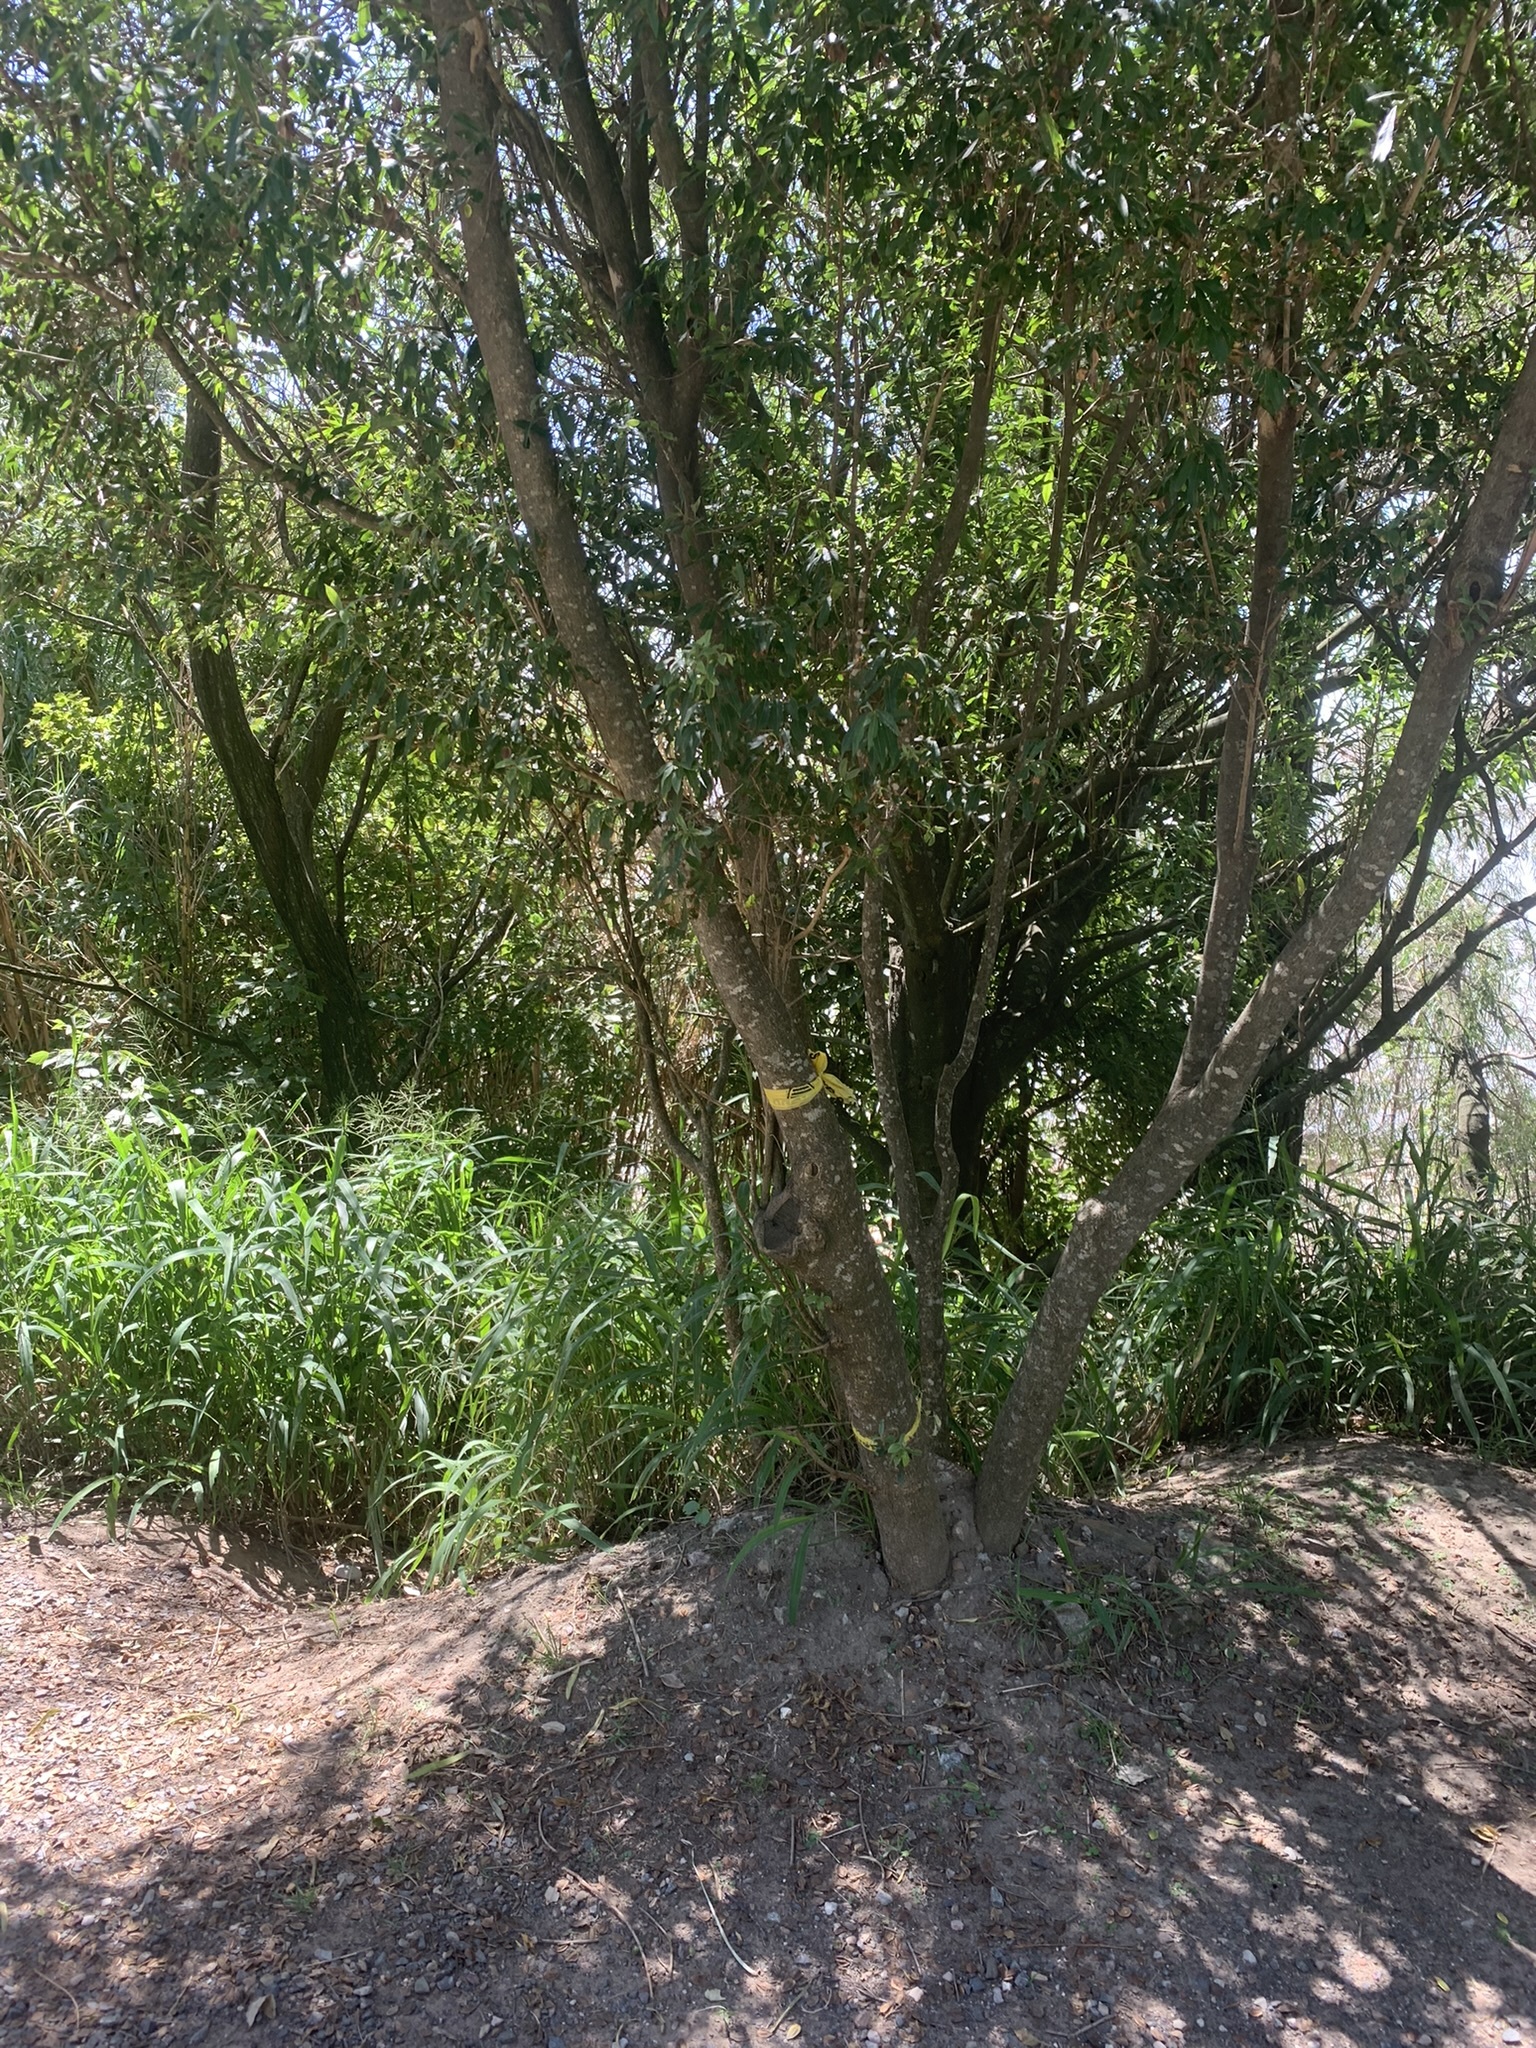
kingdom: Plantae
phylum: Tracheophyta
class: Magnoliopsida
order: Myrtales
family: Combretaceae
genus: Terminalia
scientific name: Terminalia australis
